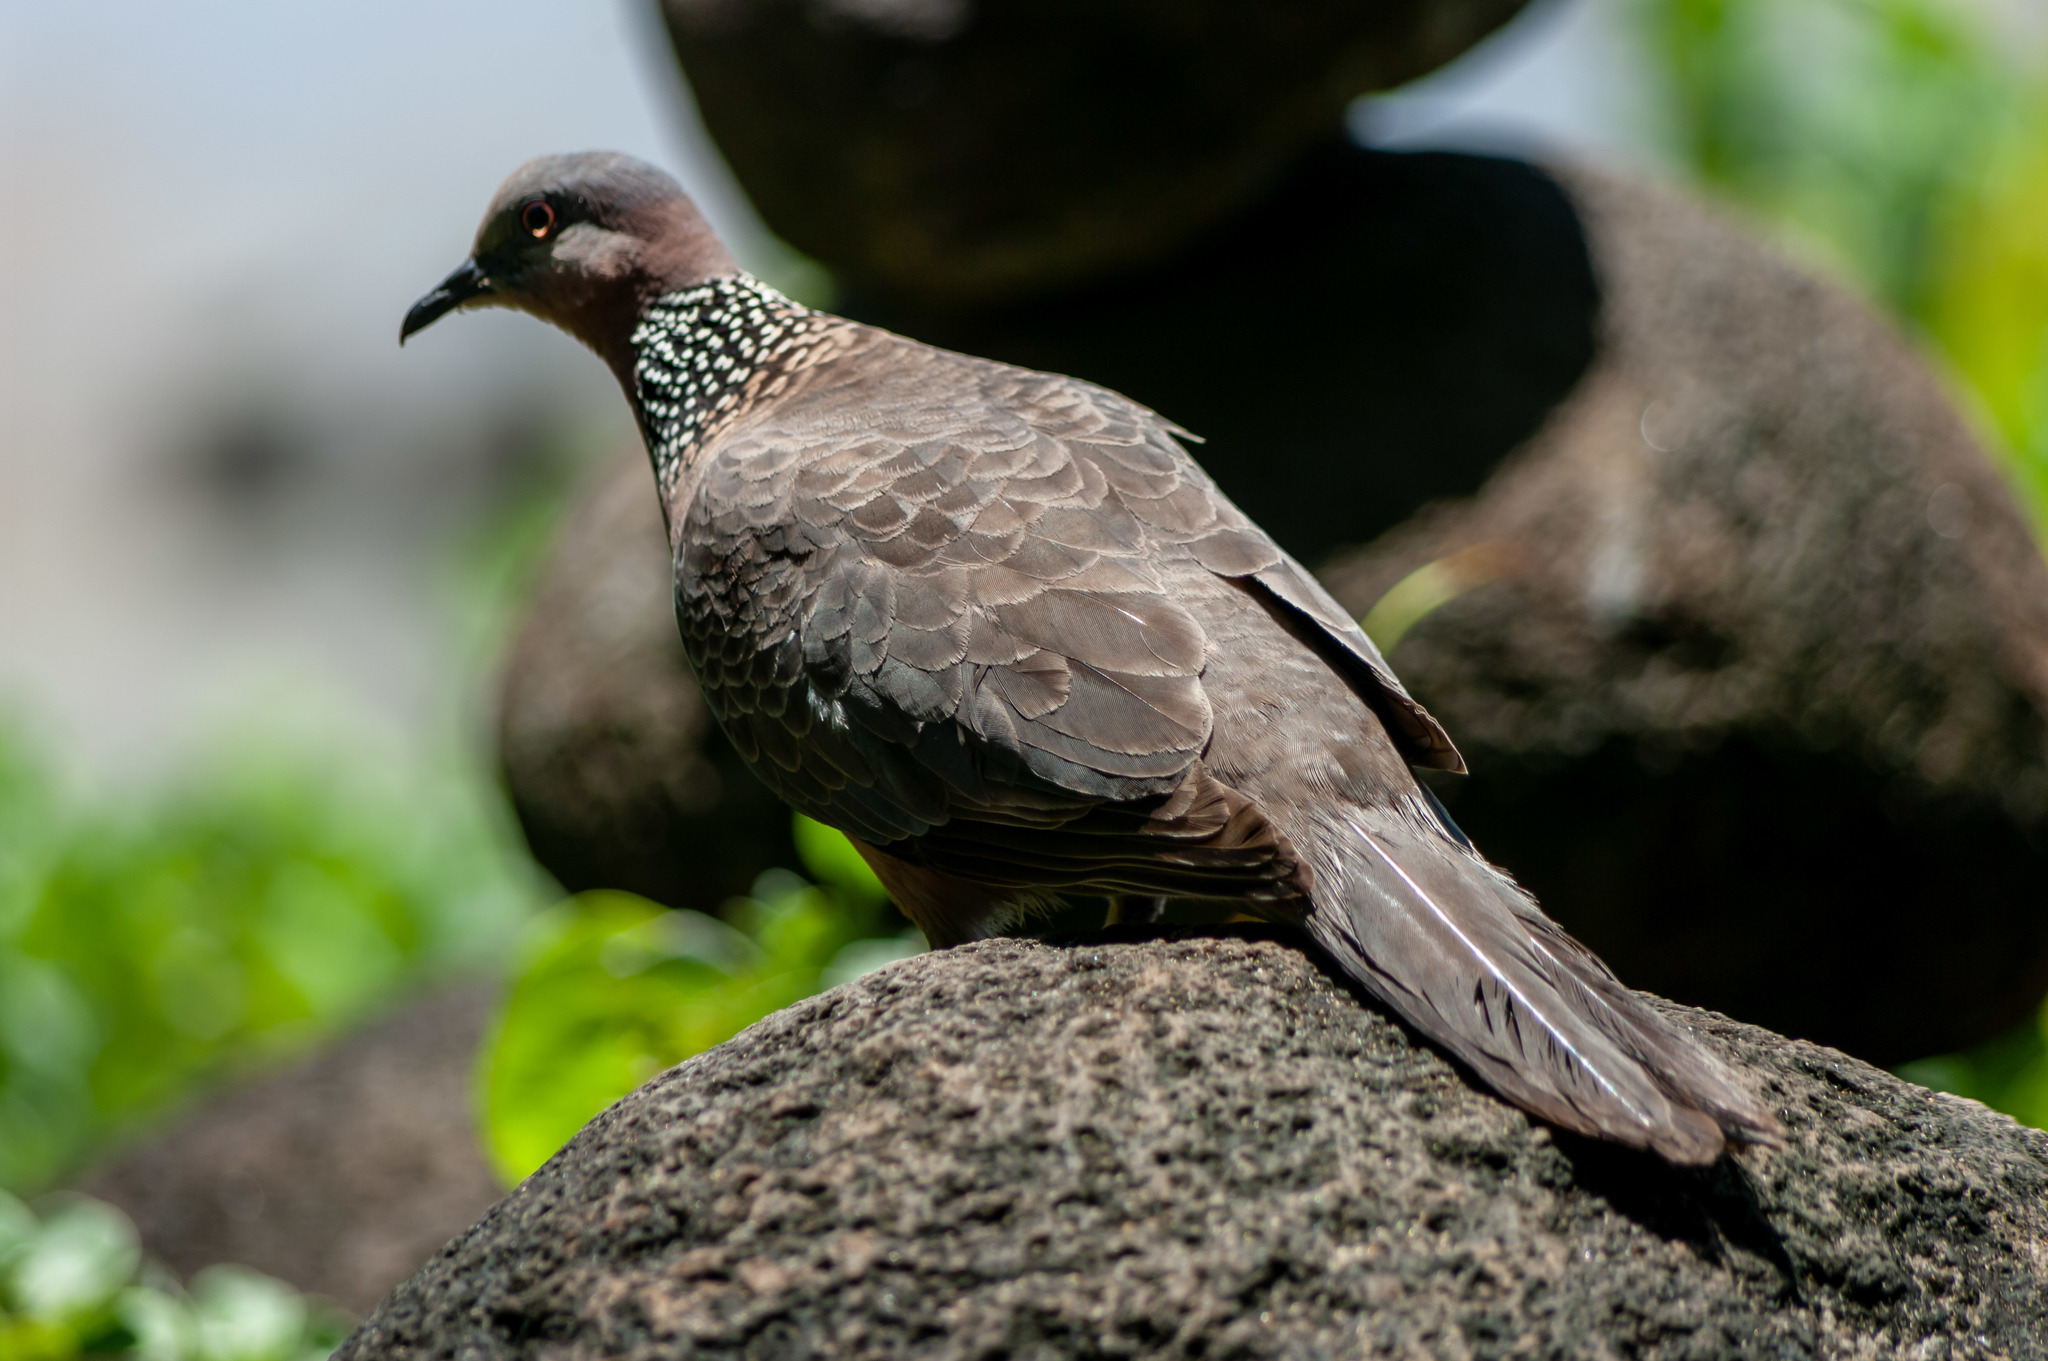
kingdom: Animalia
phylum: Chordata
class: Aves
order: Columbiformes
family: Columbidae
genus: Spilopelia
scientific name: Spilopelia chinensis
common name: Spotted dove
